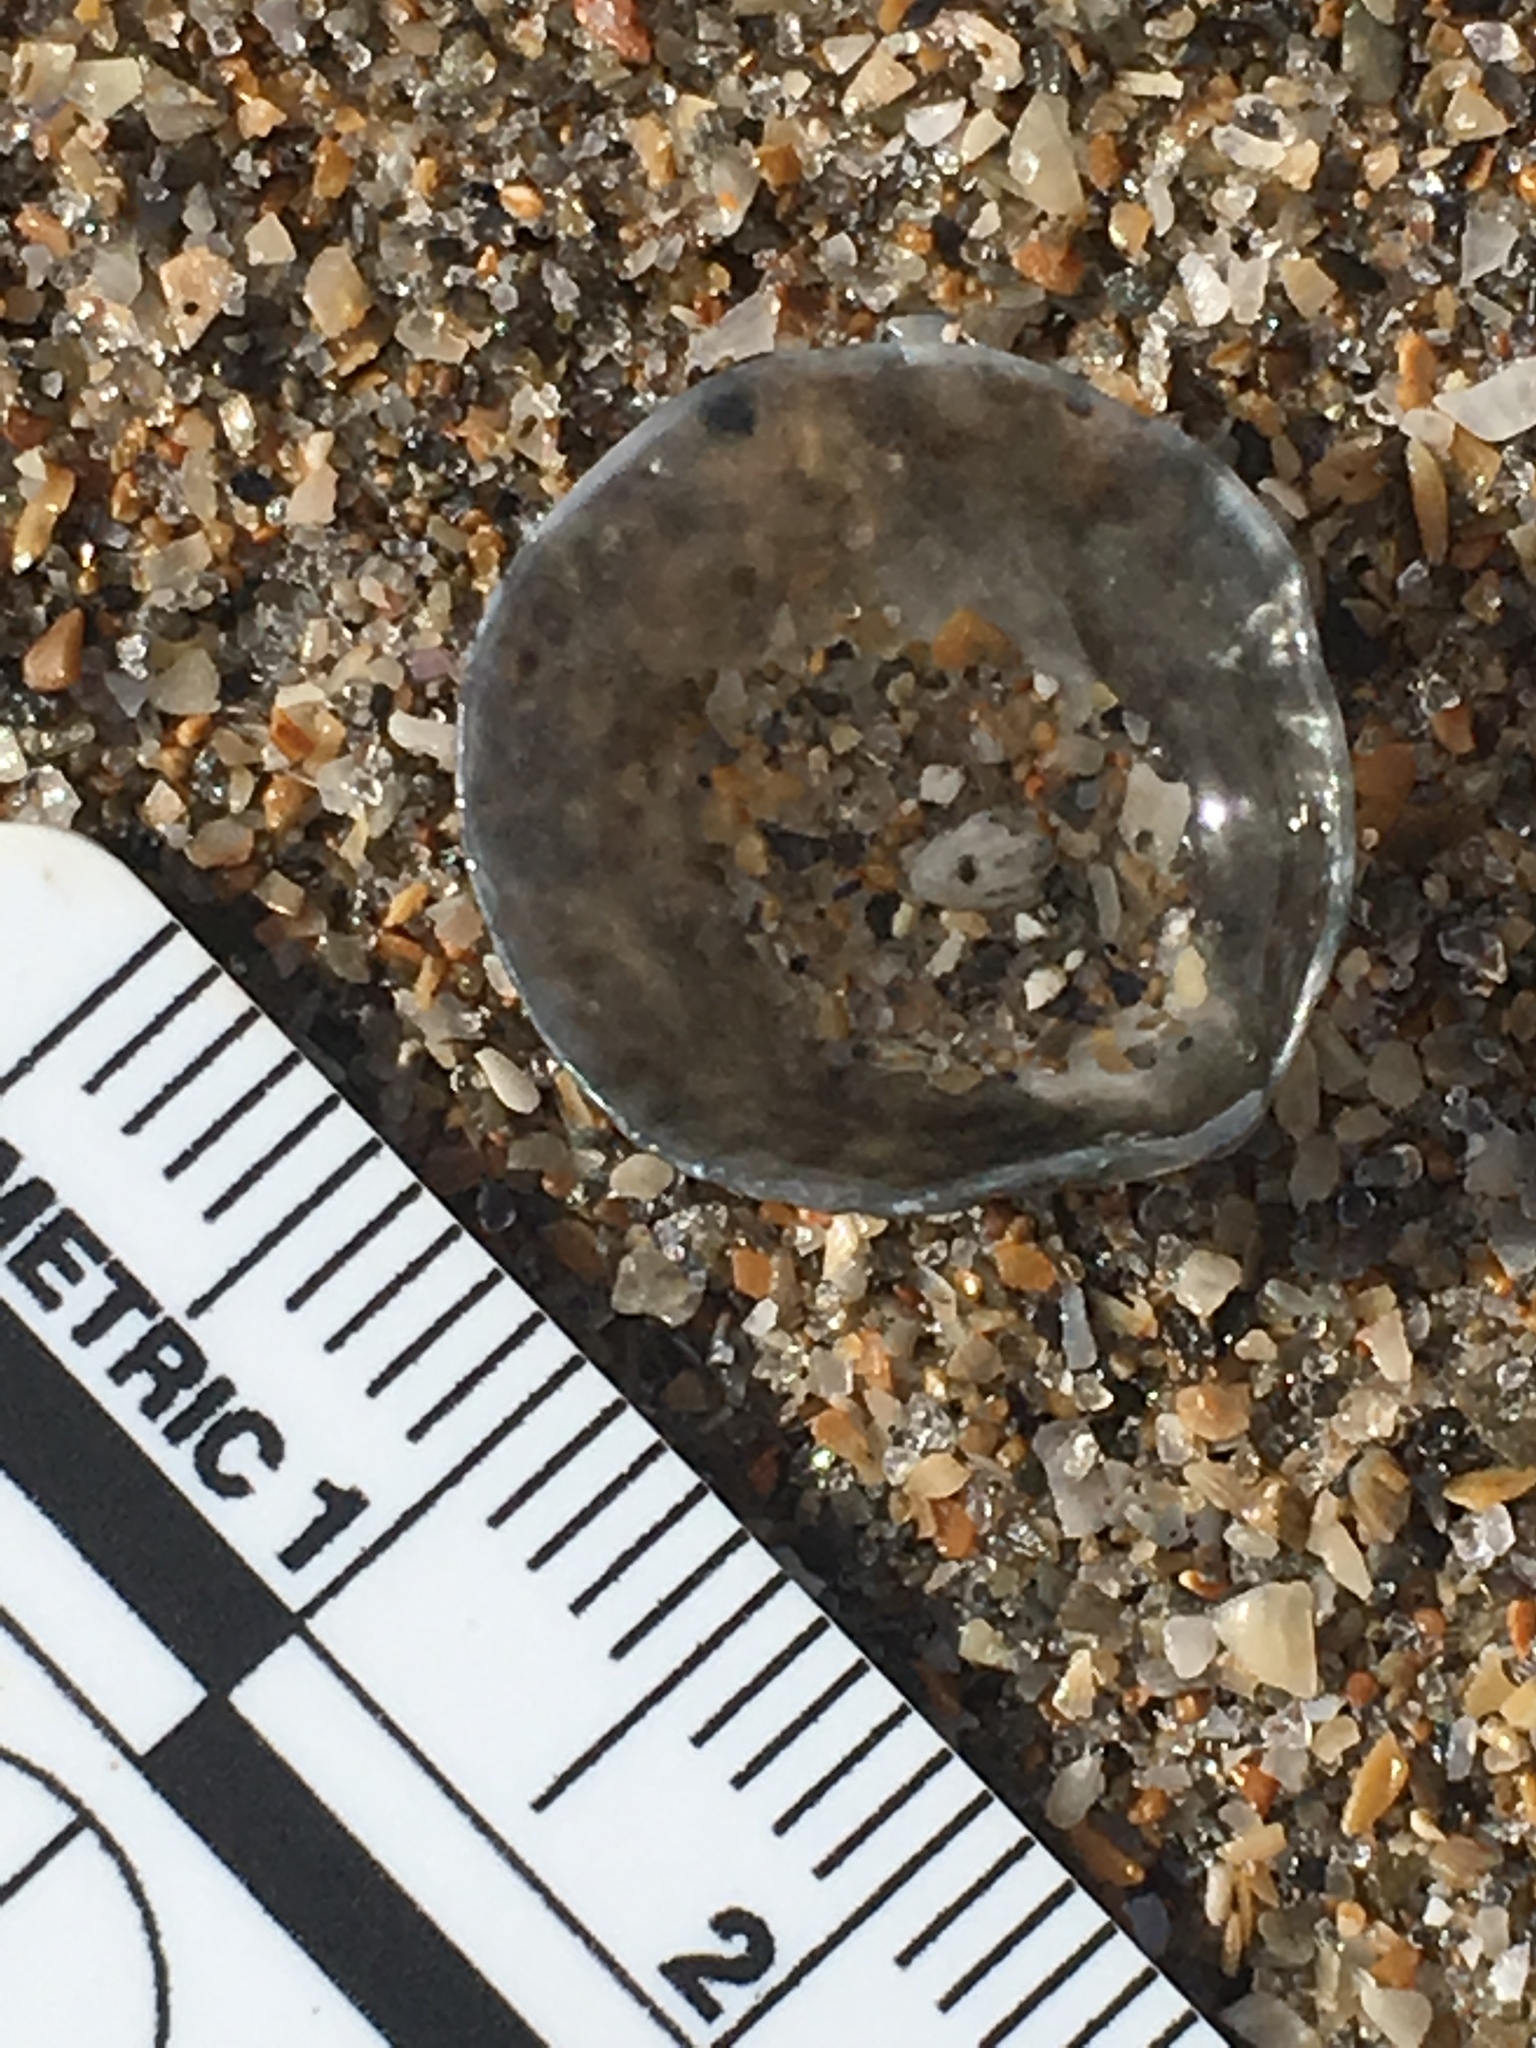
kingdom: Animalia
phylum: Mollusca
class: Bivalvia
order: Pectinida
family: Anomiidae
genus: Anomia
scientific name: Anomia simplex
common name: Common jingle shell
